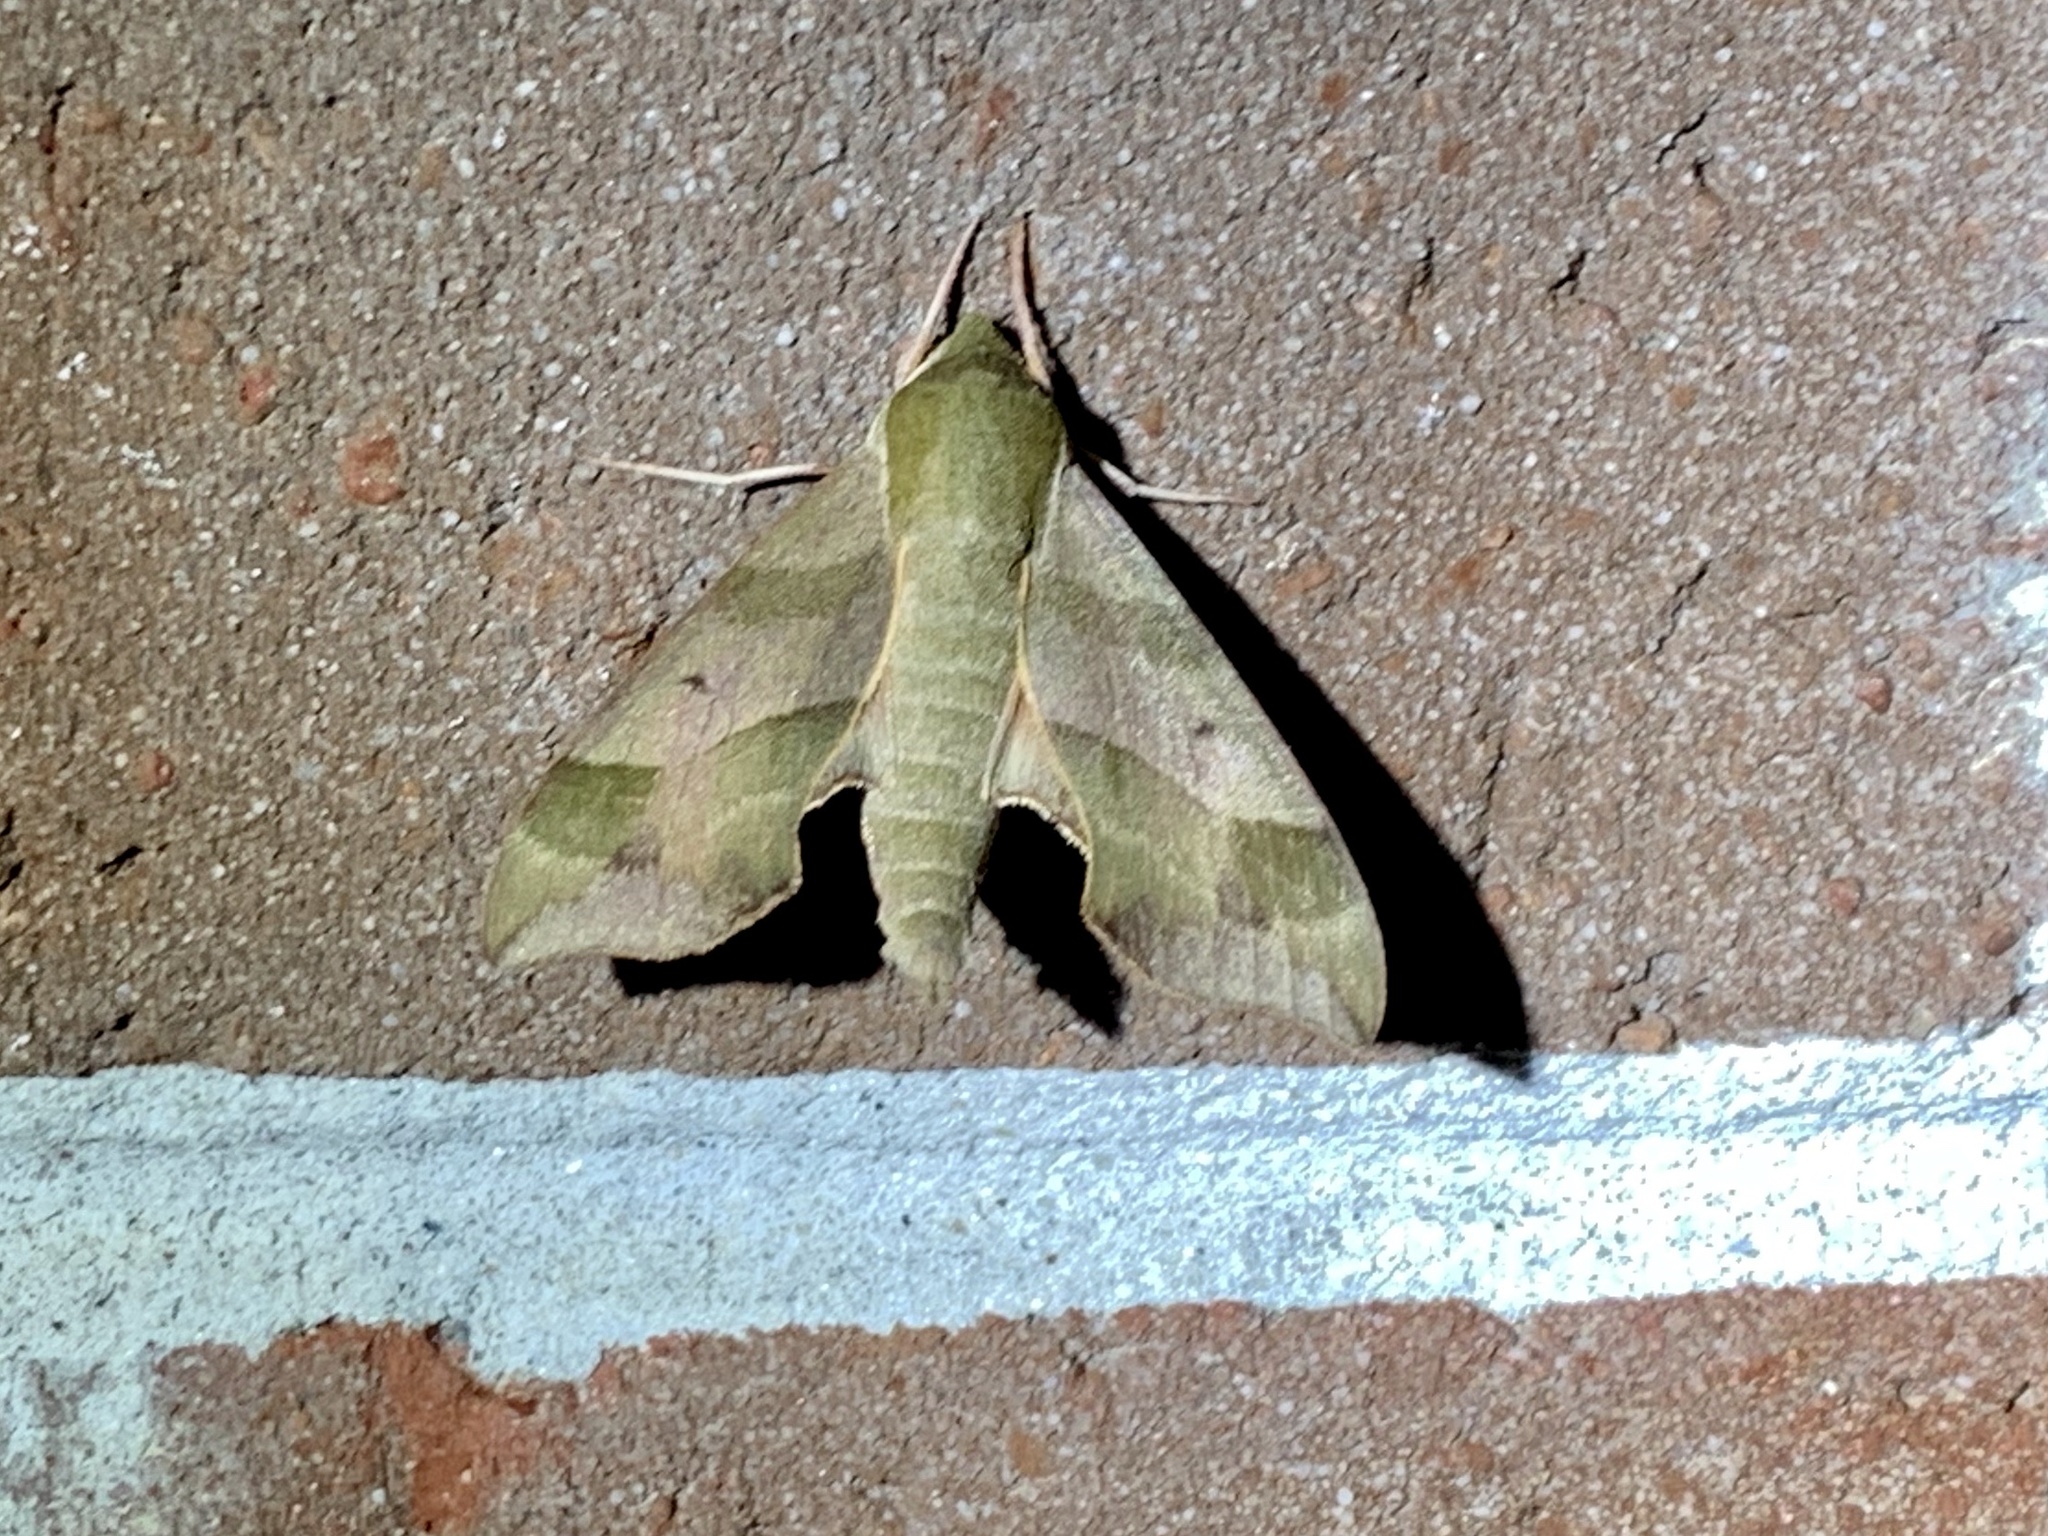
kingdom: Animalia
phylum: Arthropoda
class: Insecta
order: Lepidoptera
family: Sphingidae
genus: Darapsa
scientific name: Darapsa myron
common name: Hog sphinx
